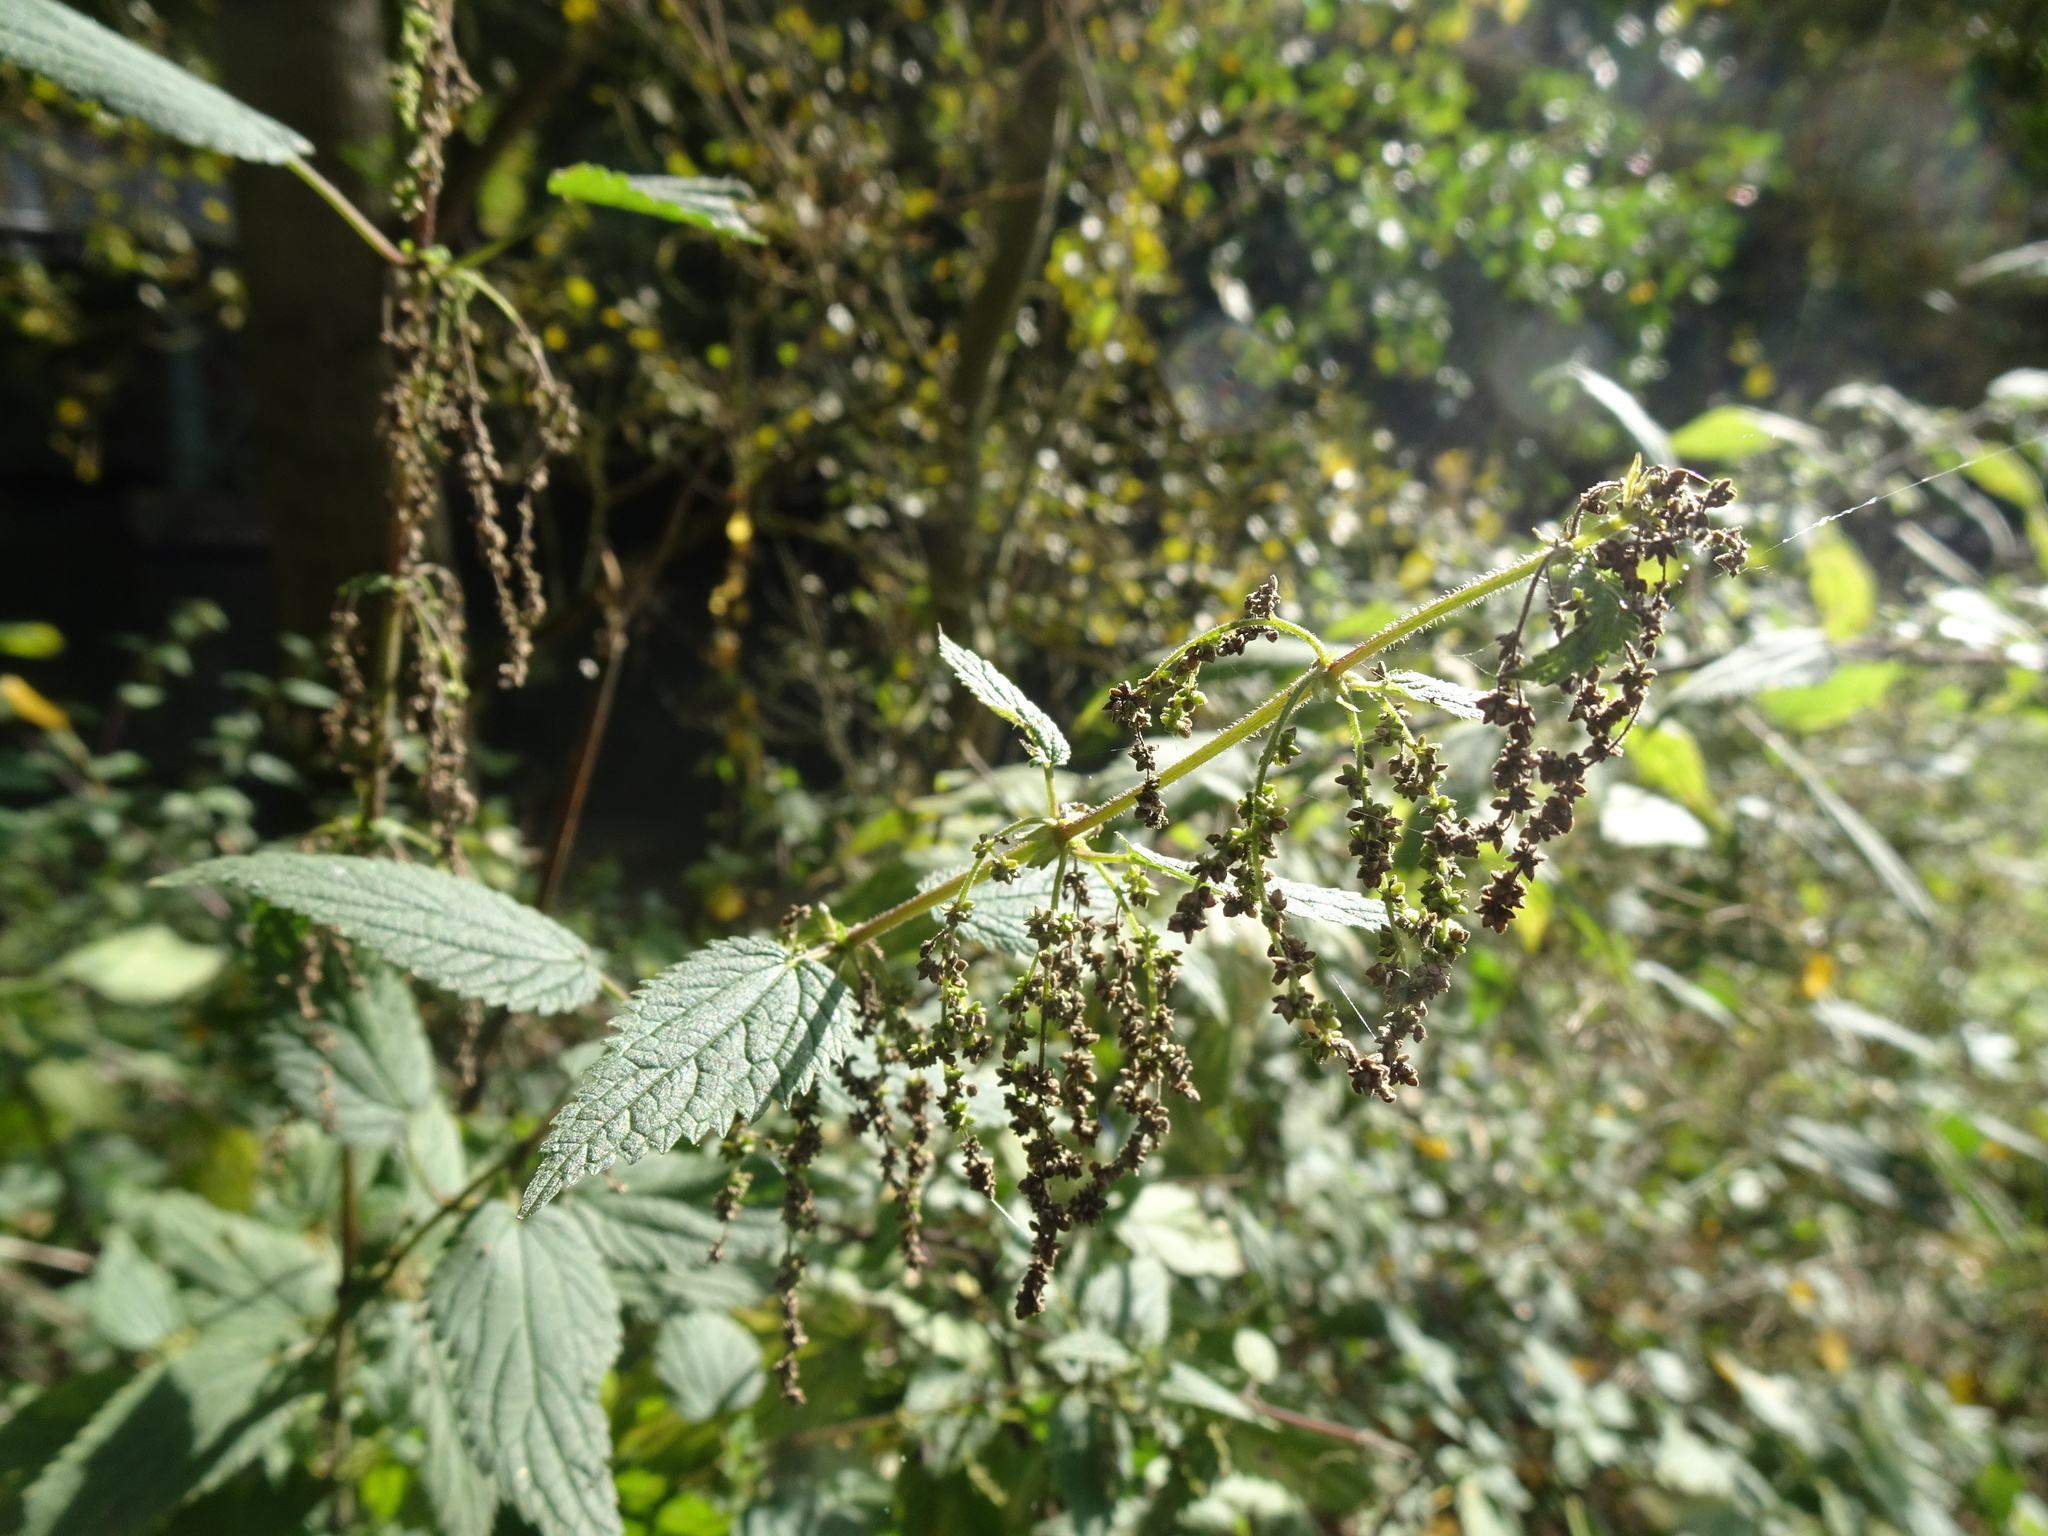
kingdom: Plantae
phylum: Tracheophyta
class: Magnoliopsida
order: Rosales
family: Urticaceae
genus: Urtica
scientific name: Urtica dioica
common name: Common nettle
